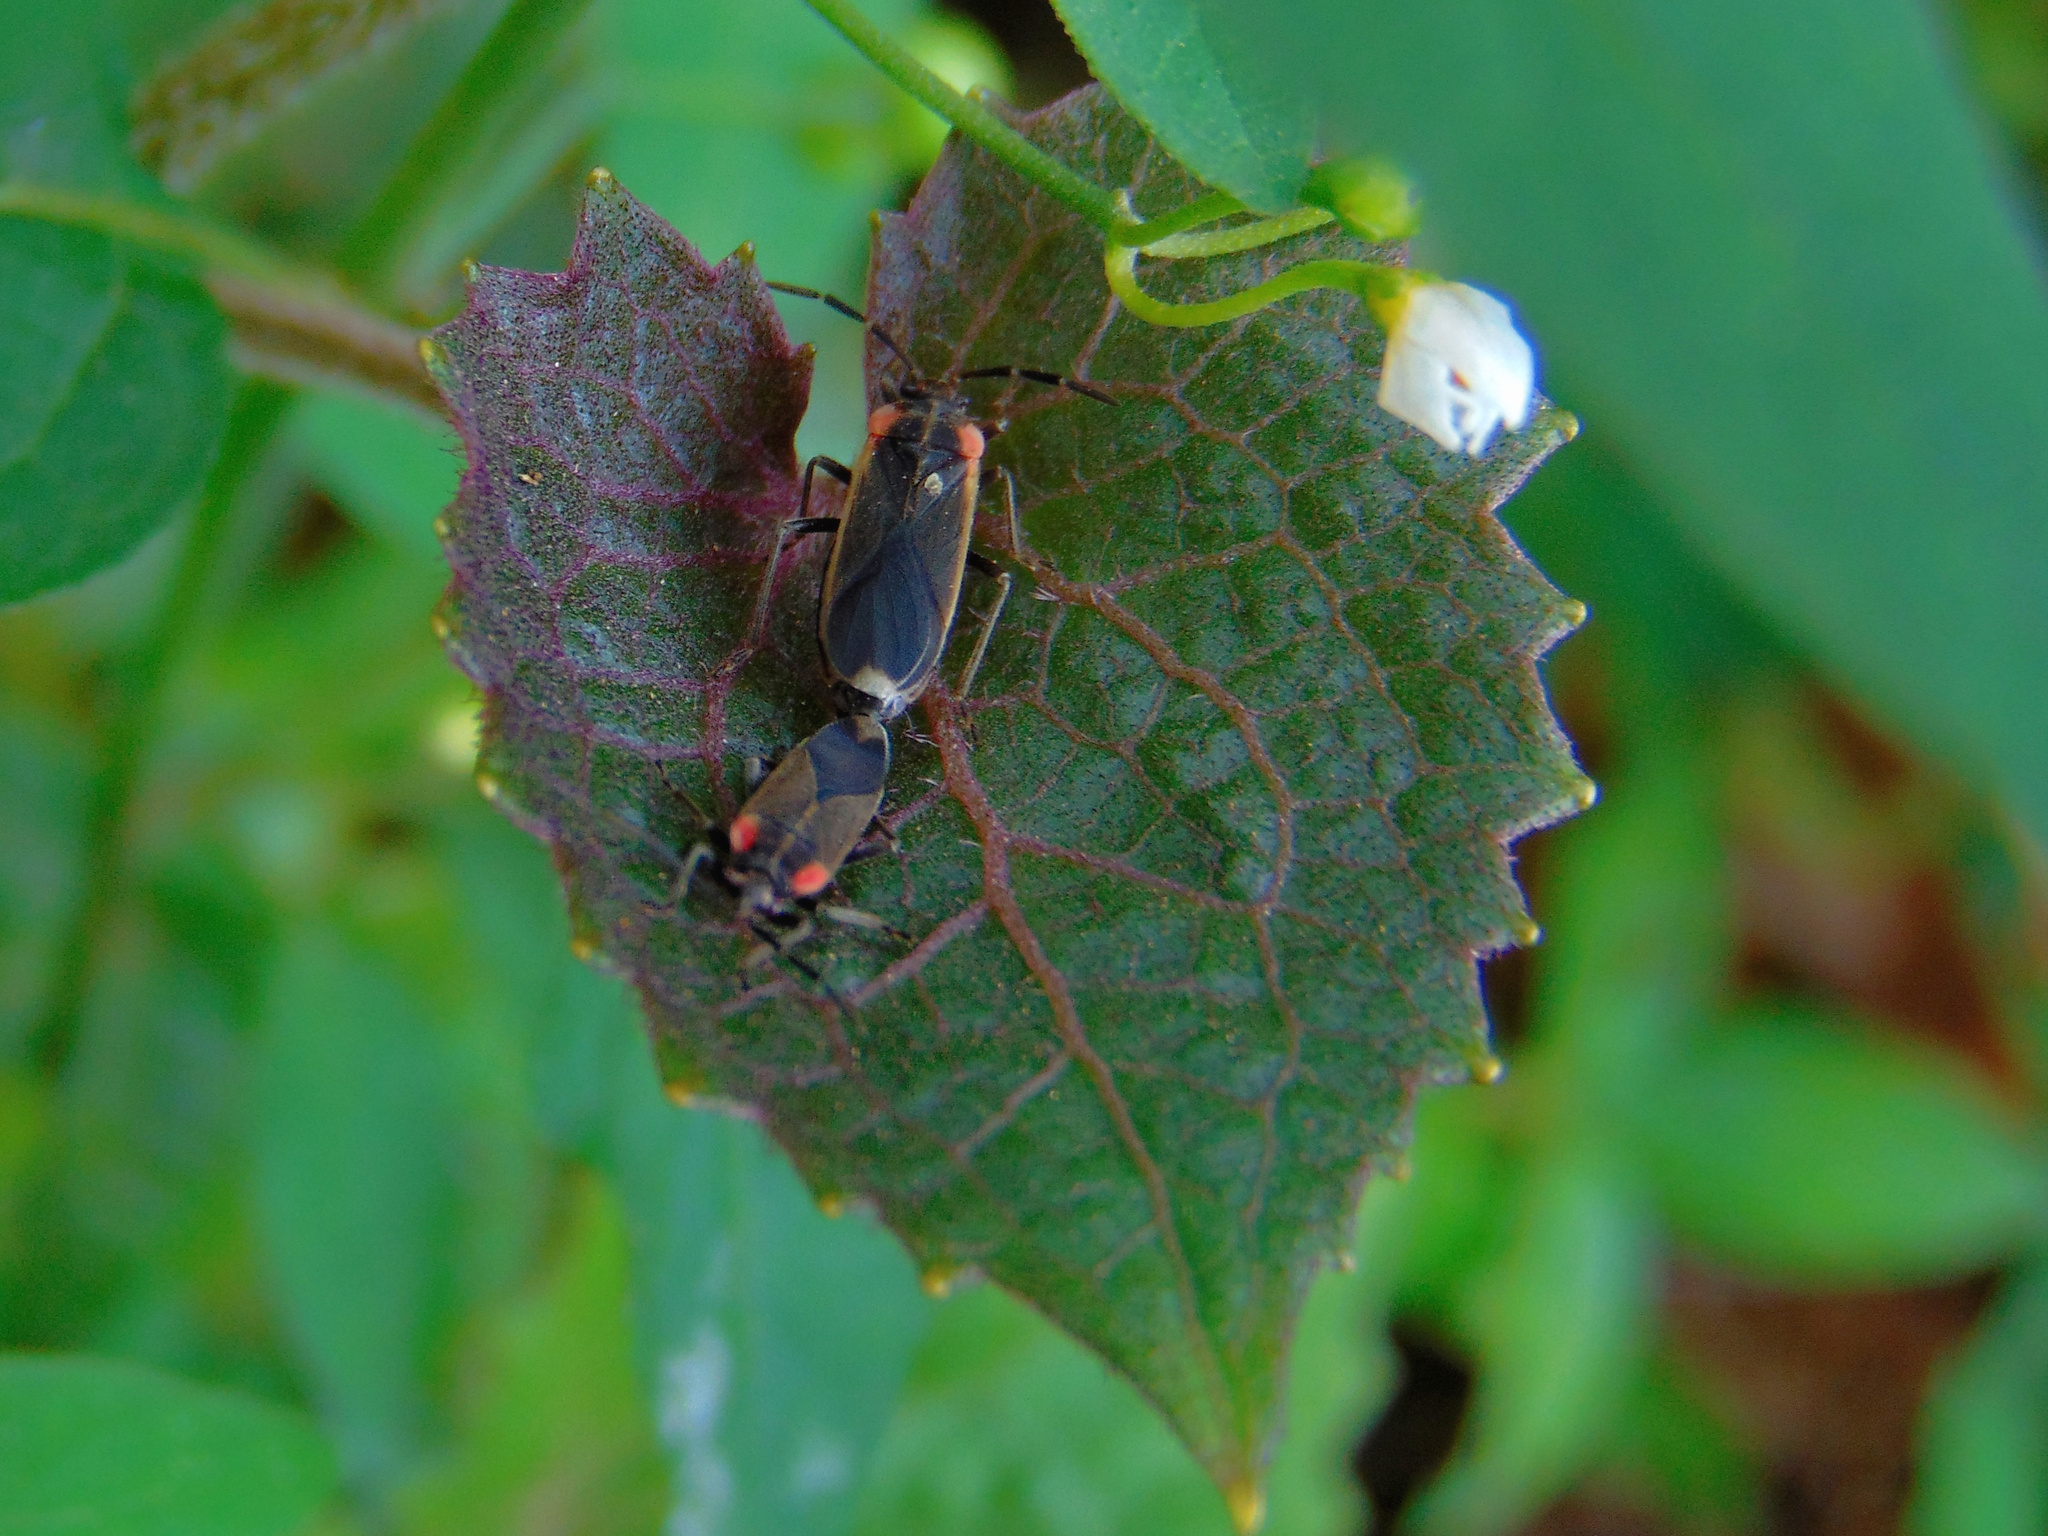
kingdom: Animalia
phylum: Arthropoda
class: Insecta
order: Hemiptera
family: Lygaeidae
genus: Acroleucus
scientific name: Acroleucus coxalis
